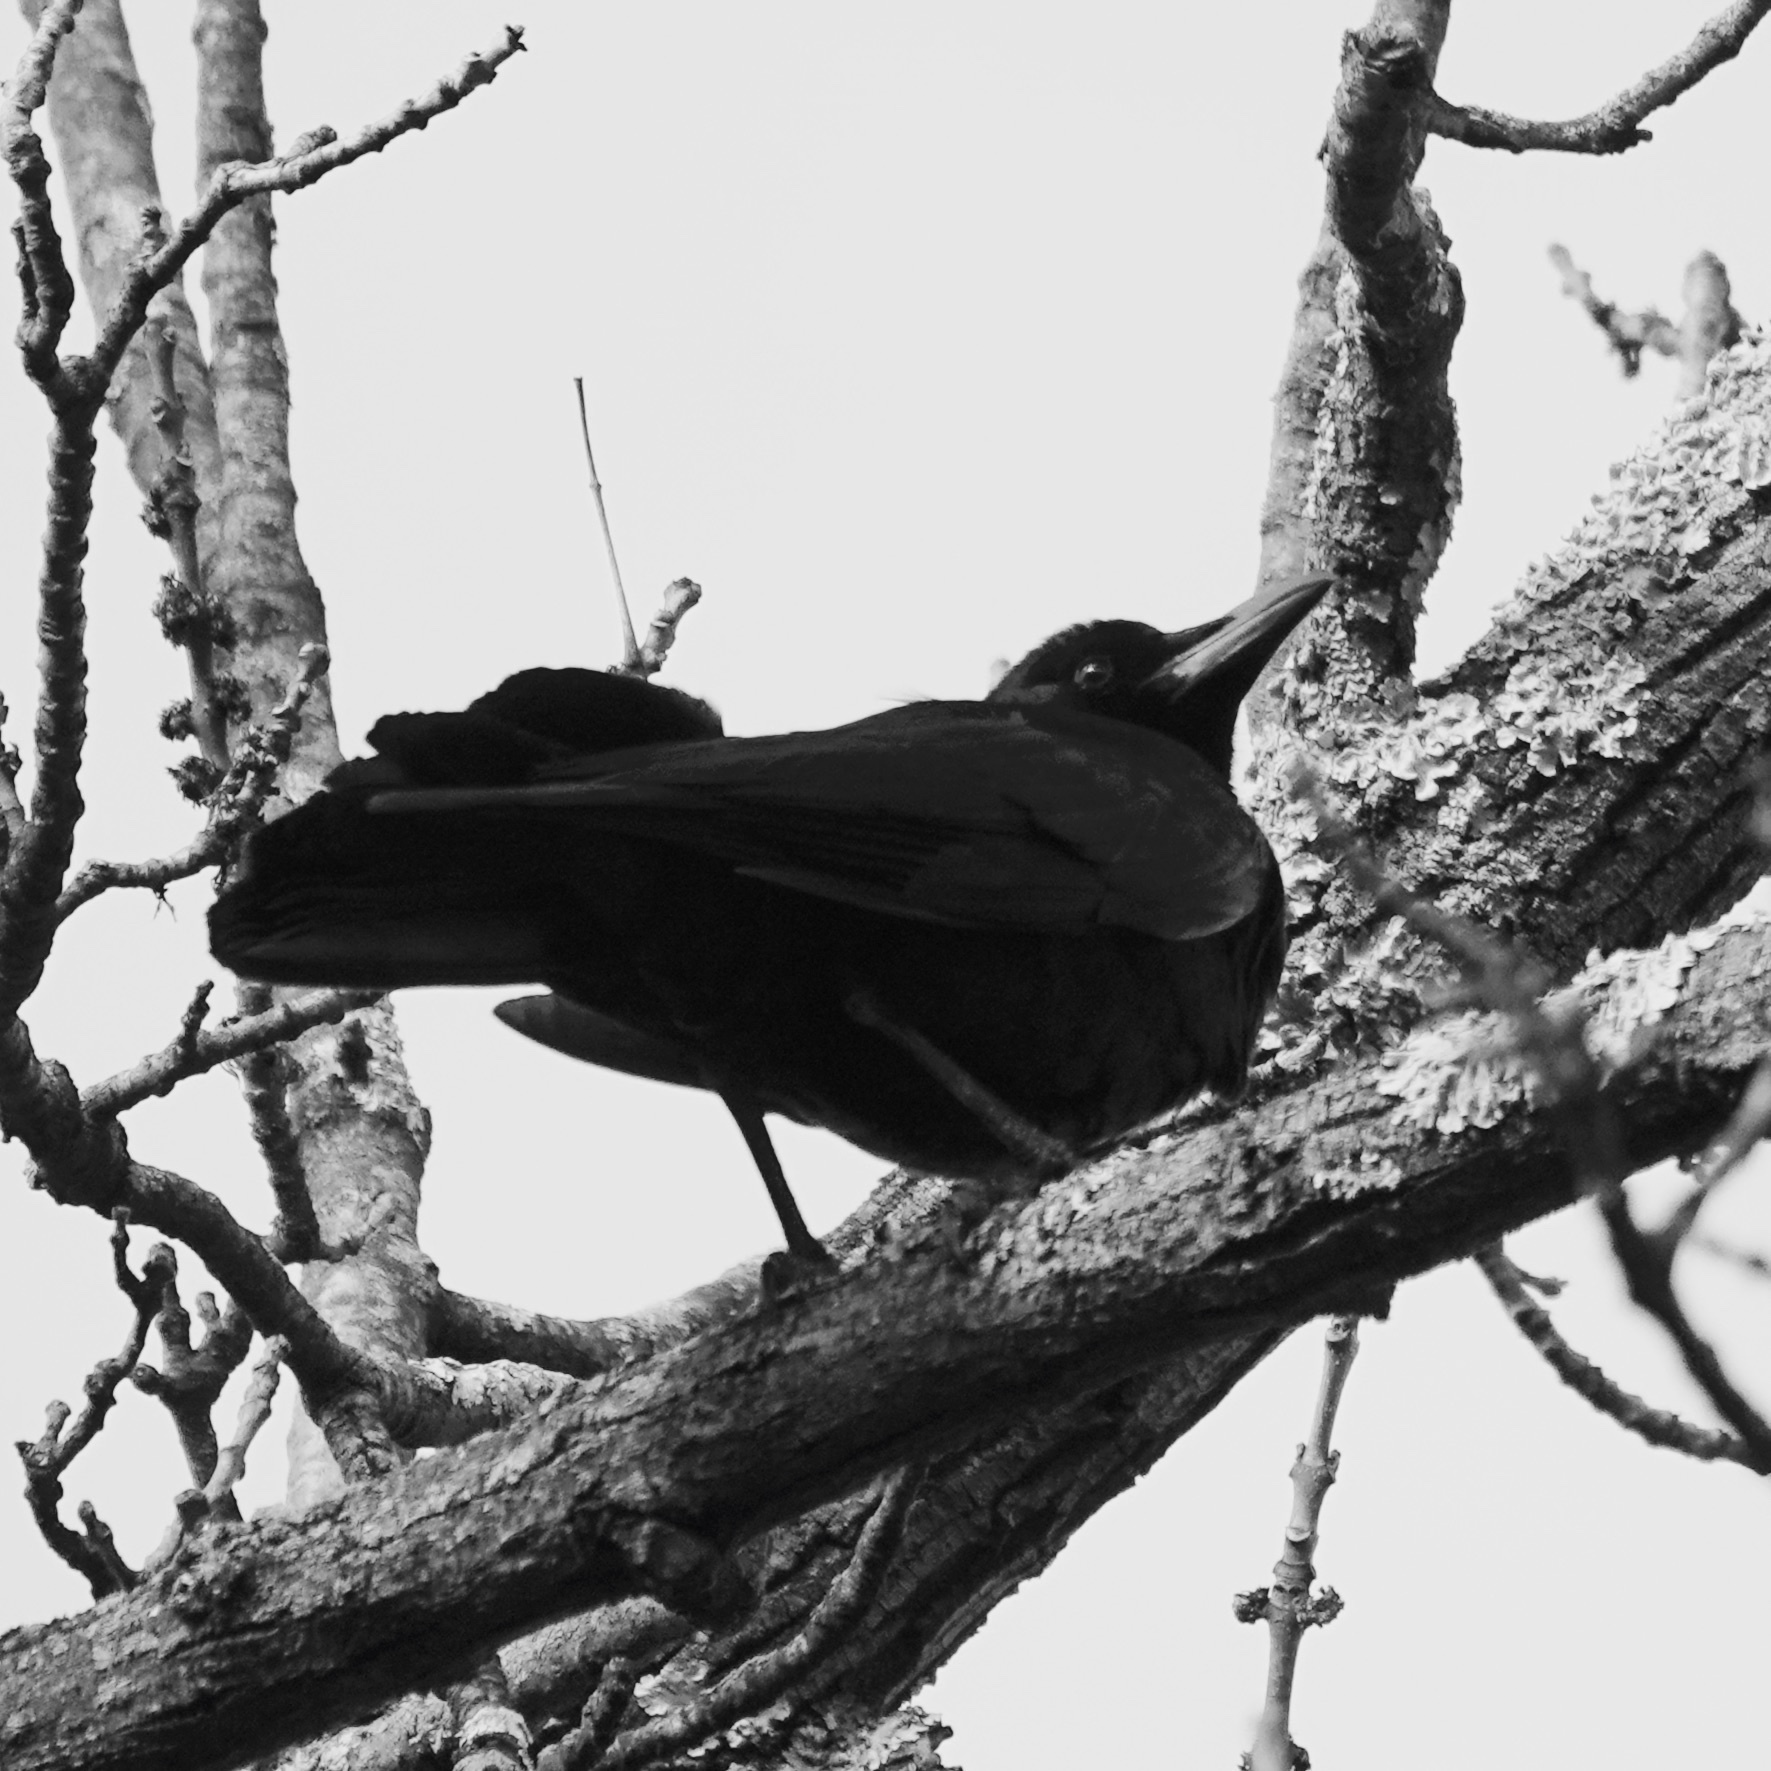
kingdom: Animalia
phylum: Chordata
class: Aves
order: Passeriformes
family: Corvidae
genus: Corvus
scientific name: Corvus brachyrhynchos
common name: American crow
